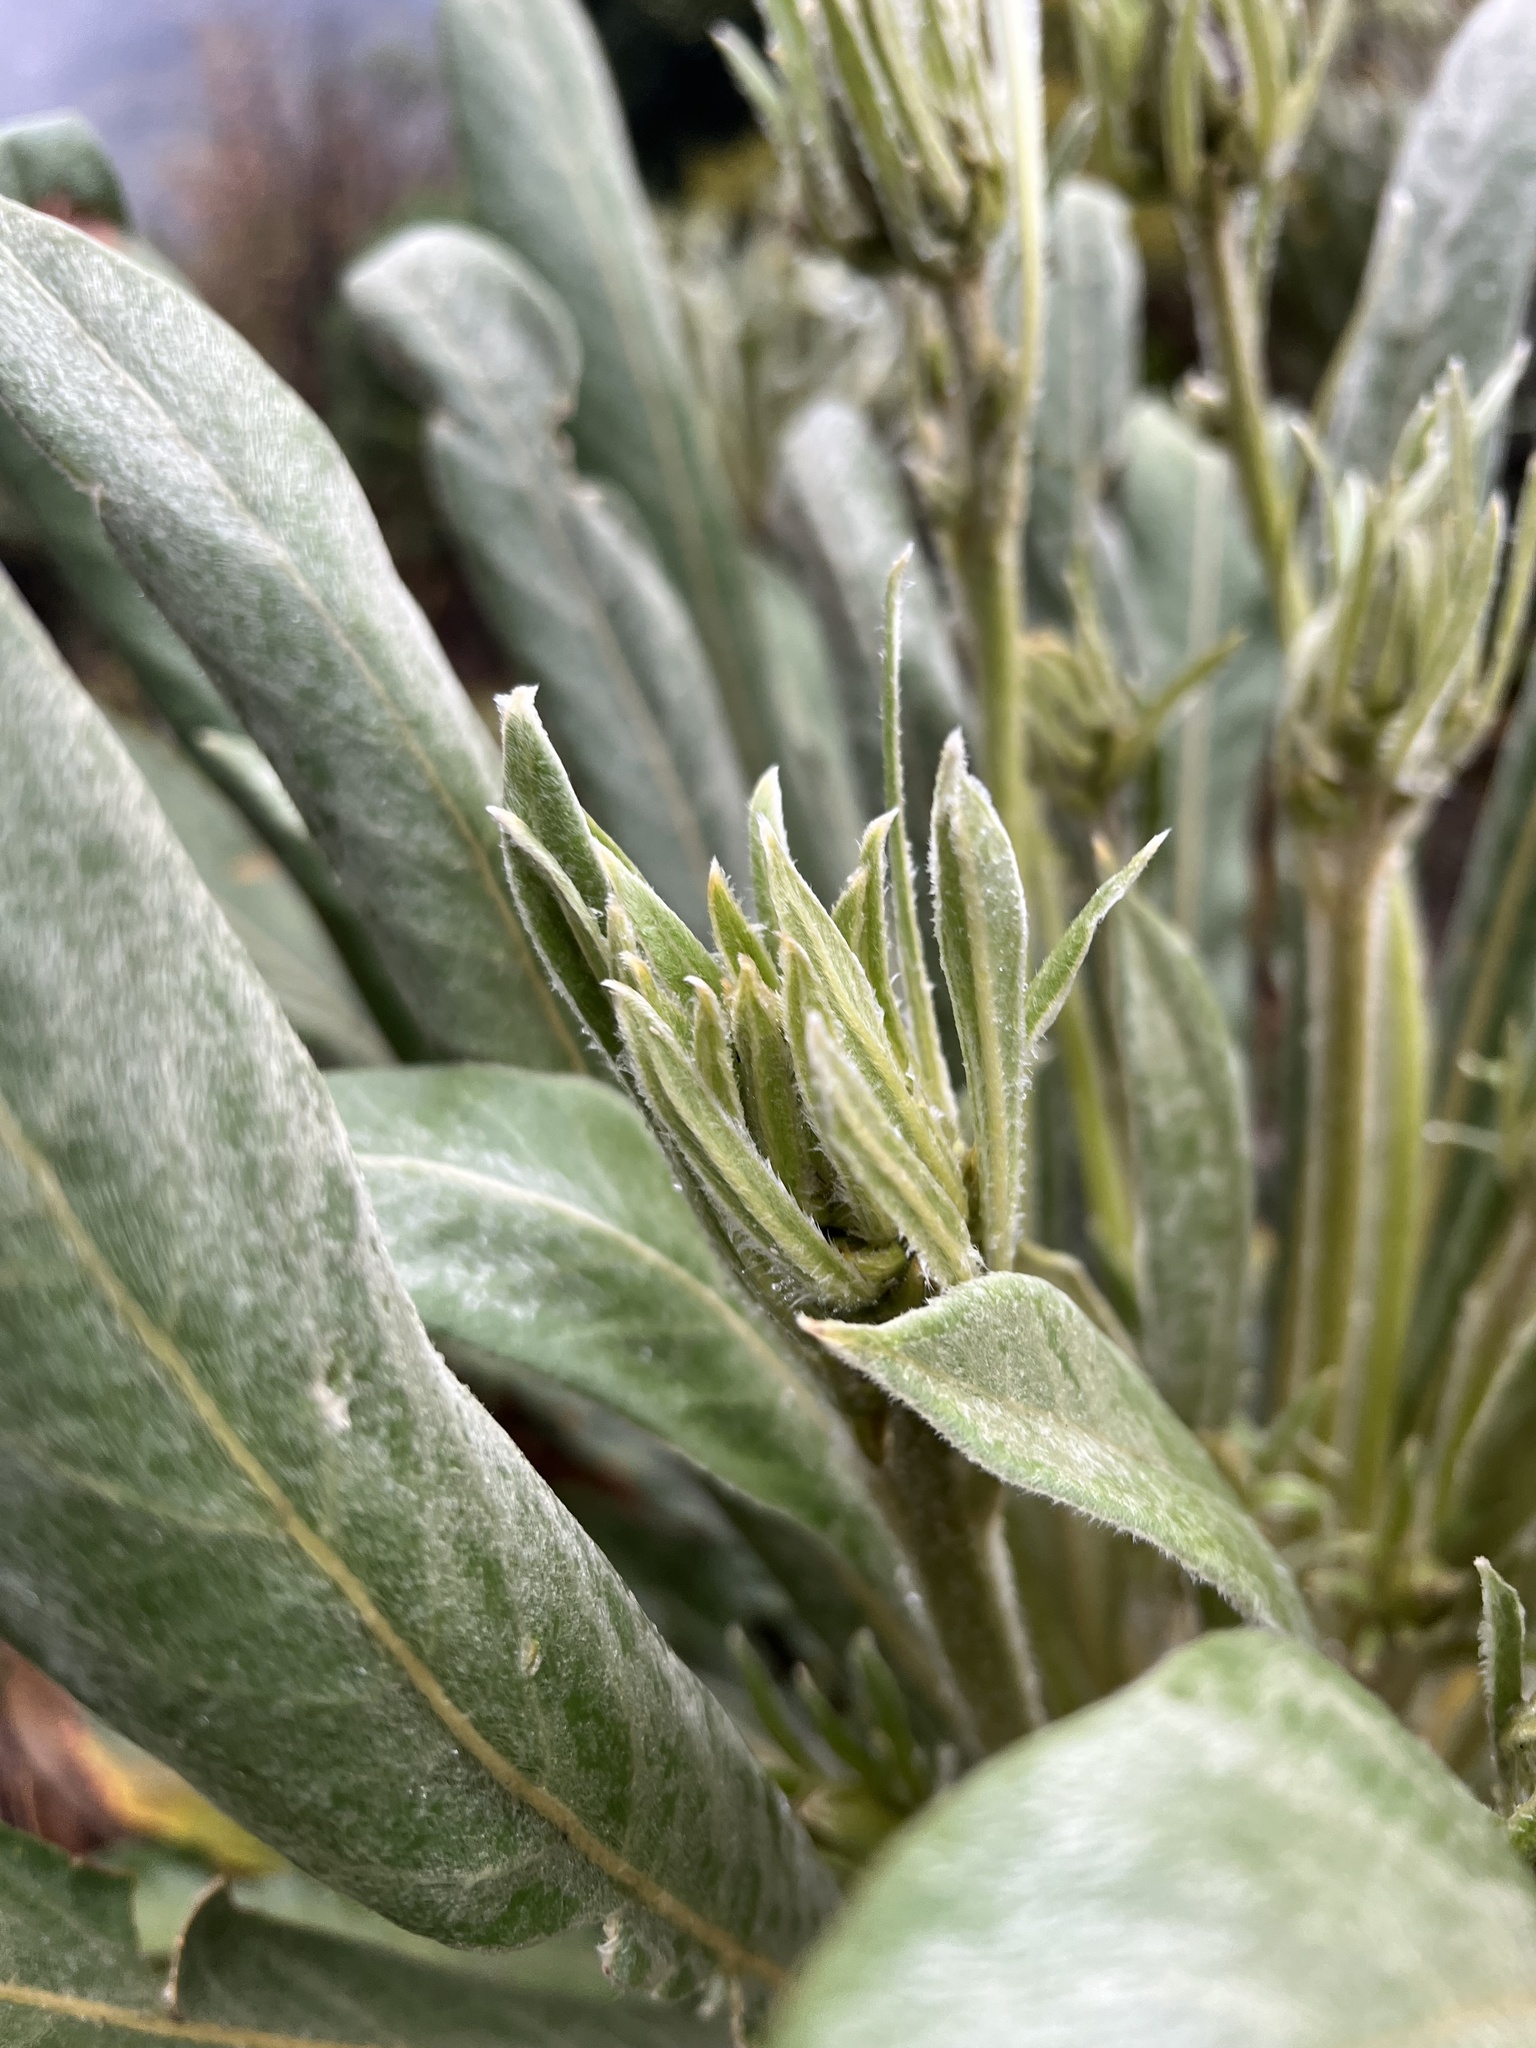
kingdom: Plantae
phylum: Tracheophyta
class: Magnoliopsida
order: Asterales
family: Asteraceae
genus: Espeletia
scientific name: Espeletia corymbosa
